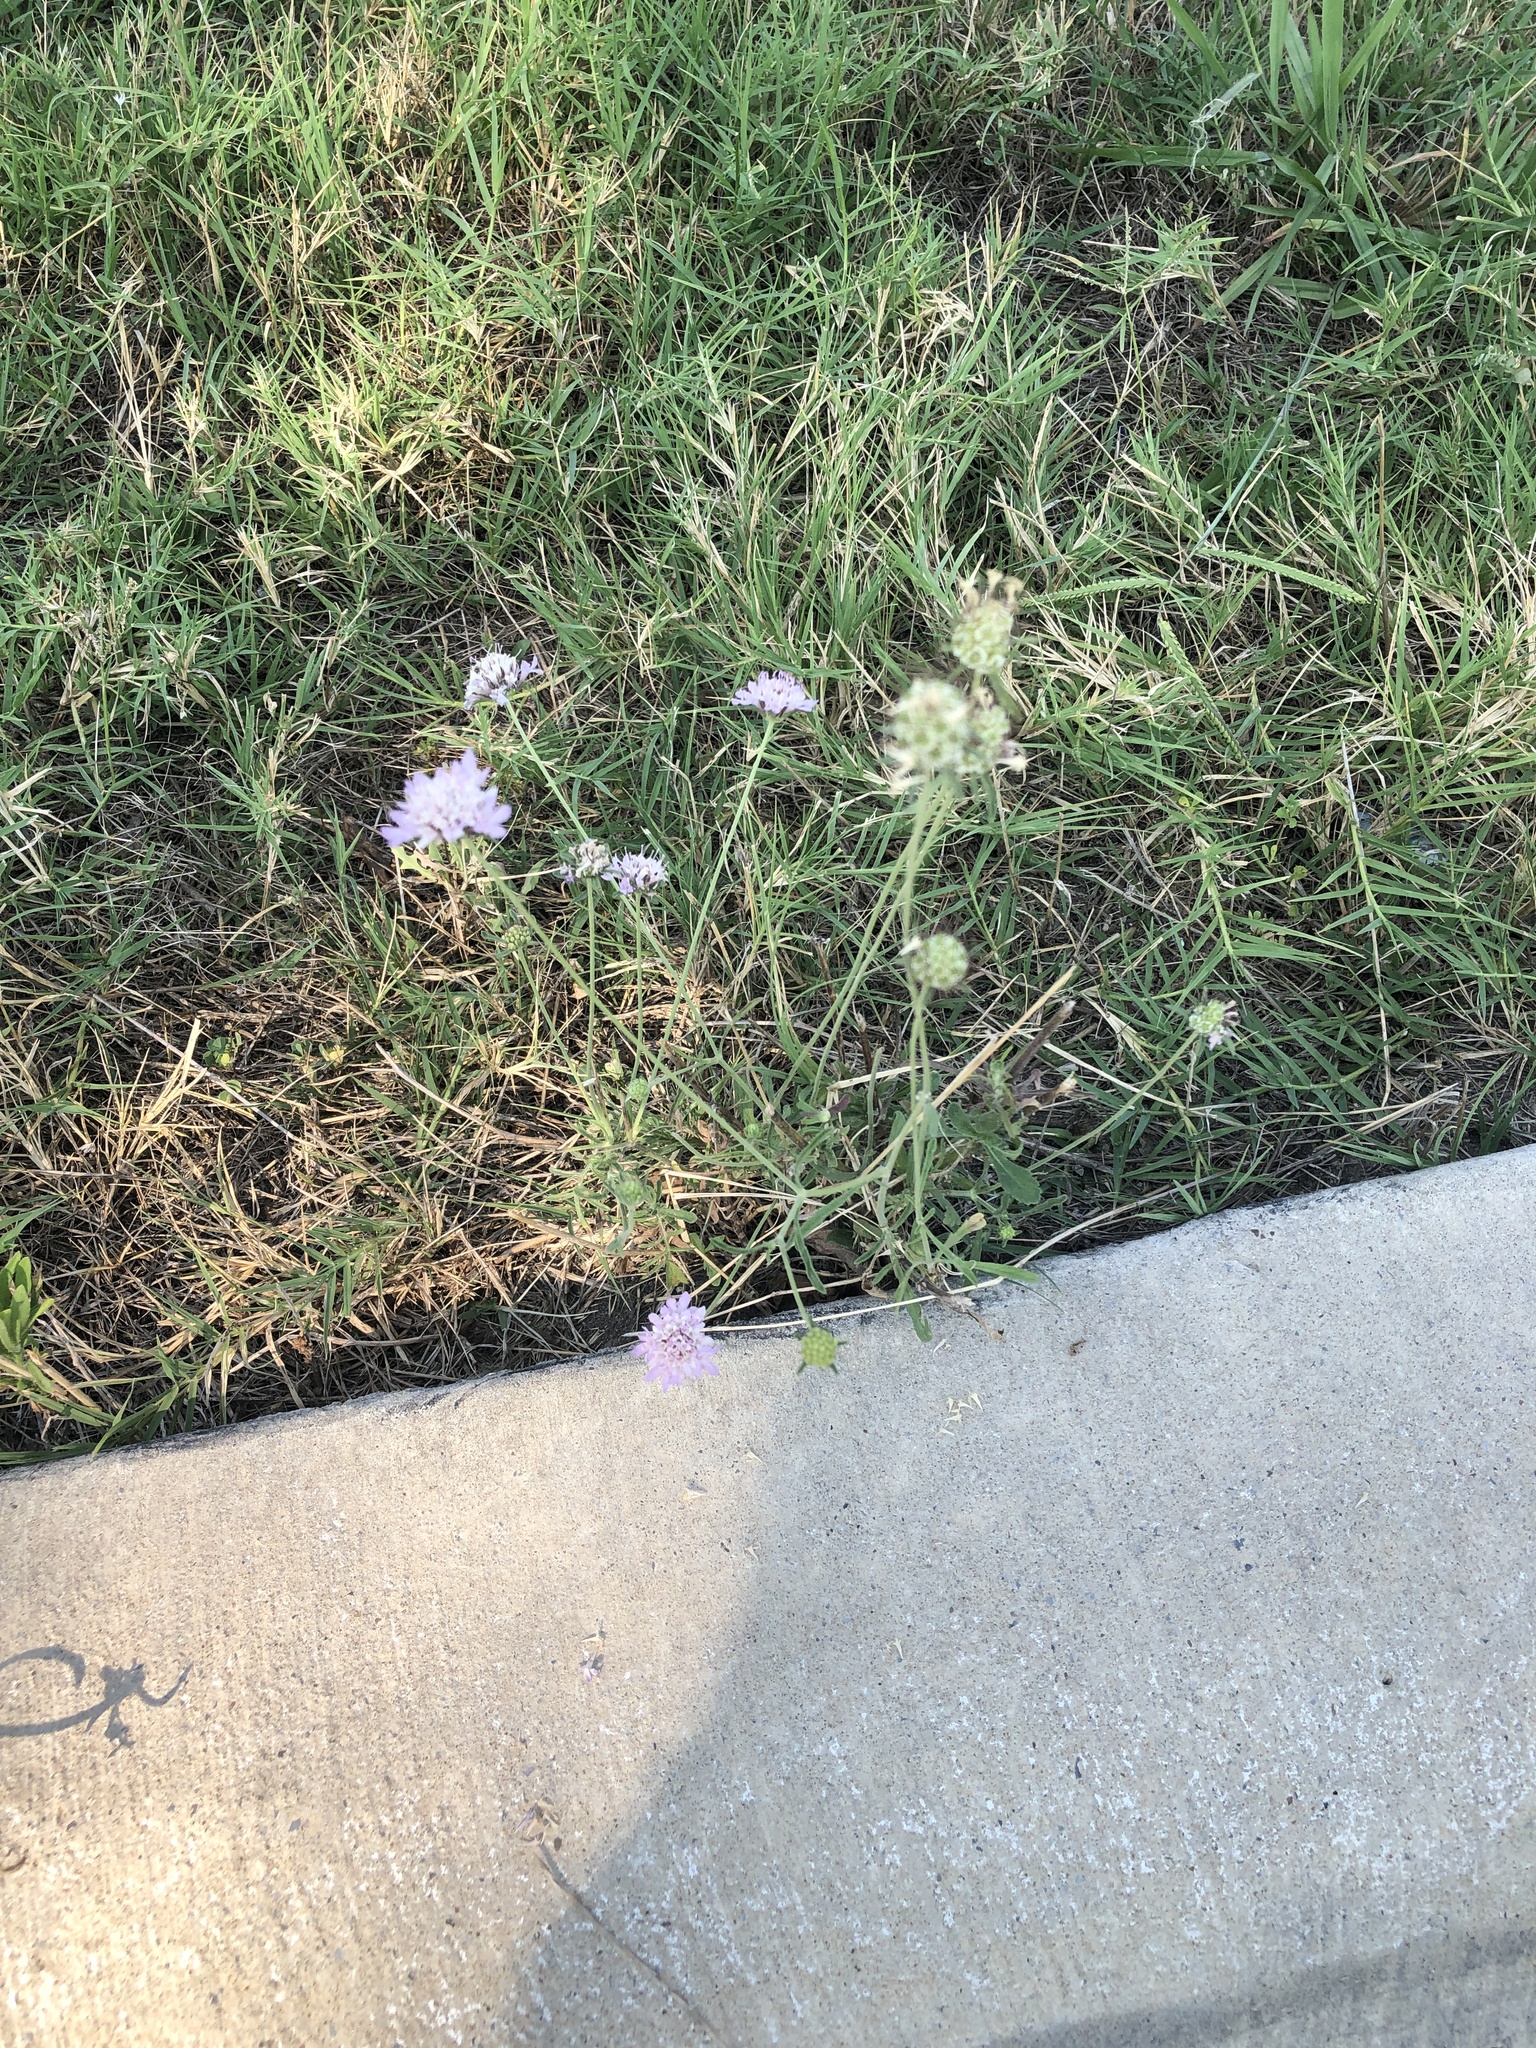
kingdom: Plantae
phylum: Tracheophyta
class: Magnoliopsida
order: Dipsacales
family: Caprifoliaceae
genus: Sixalix
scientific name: Sixalix atropurpurea
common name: Sweet scabious
